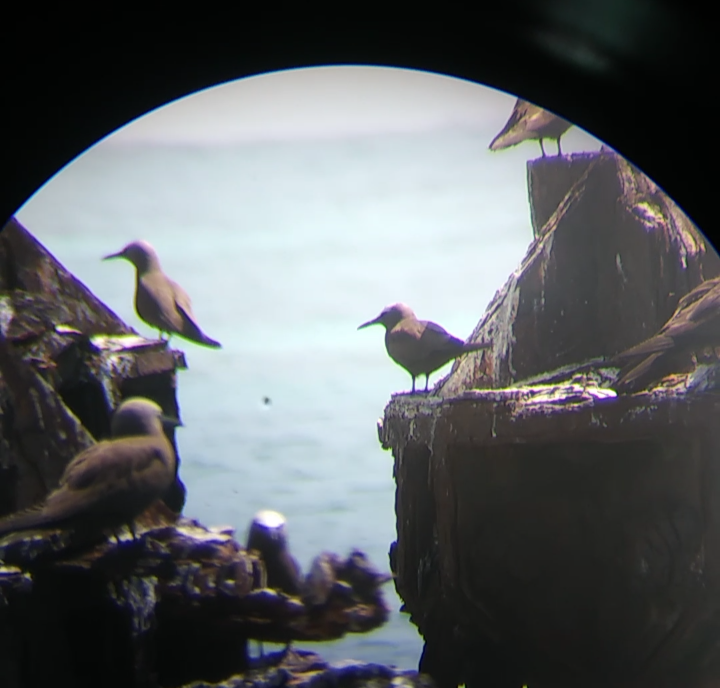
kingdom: Animalia
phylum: Chordata
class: Aves
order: Charadriiformes
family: Laridae
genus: Anous
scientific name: Anous minutus
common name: Black noddy
